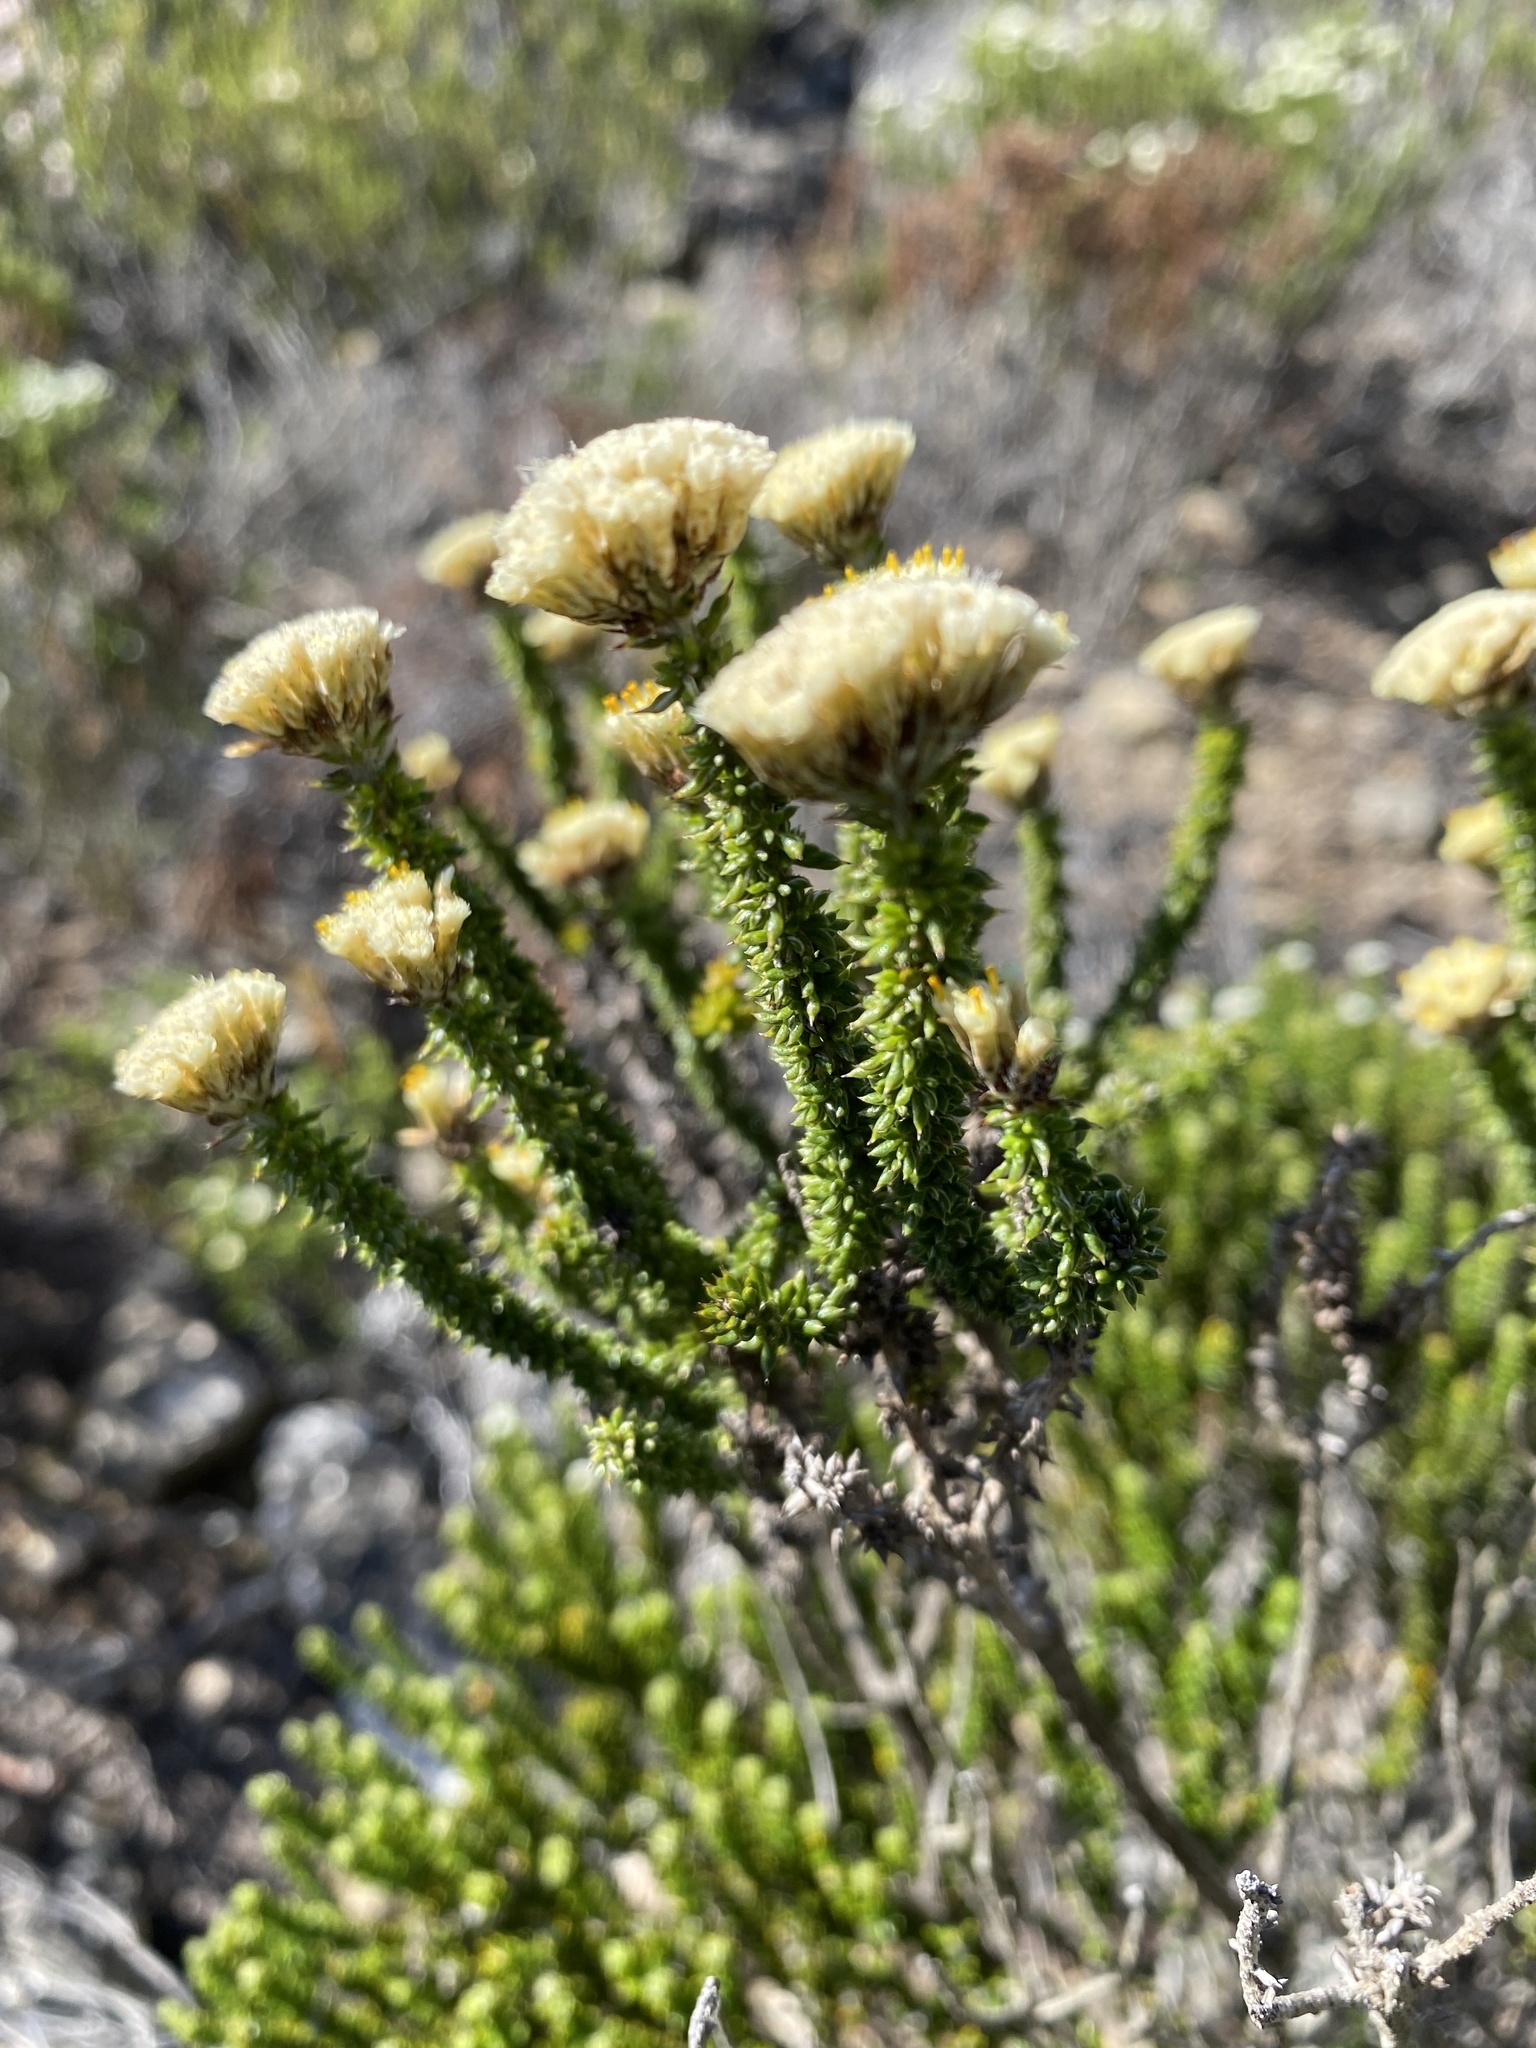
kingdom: Plantae
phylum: Tracheophyta
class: Magnoliopsida
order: Asterales
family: Asteraceae
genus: Metalasia
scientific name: Metalasia luteola
